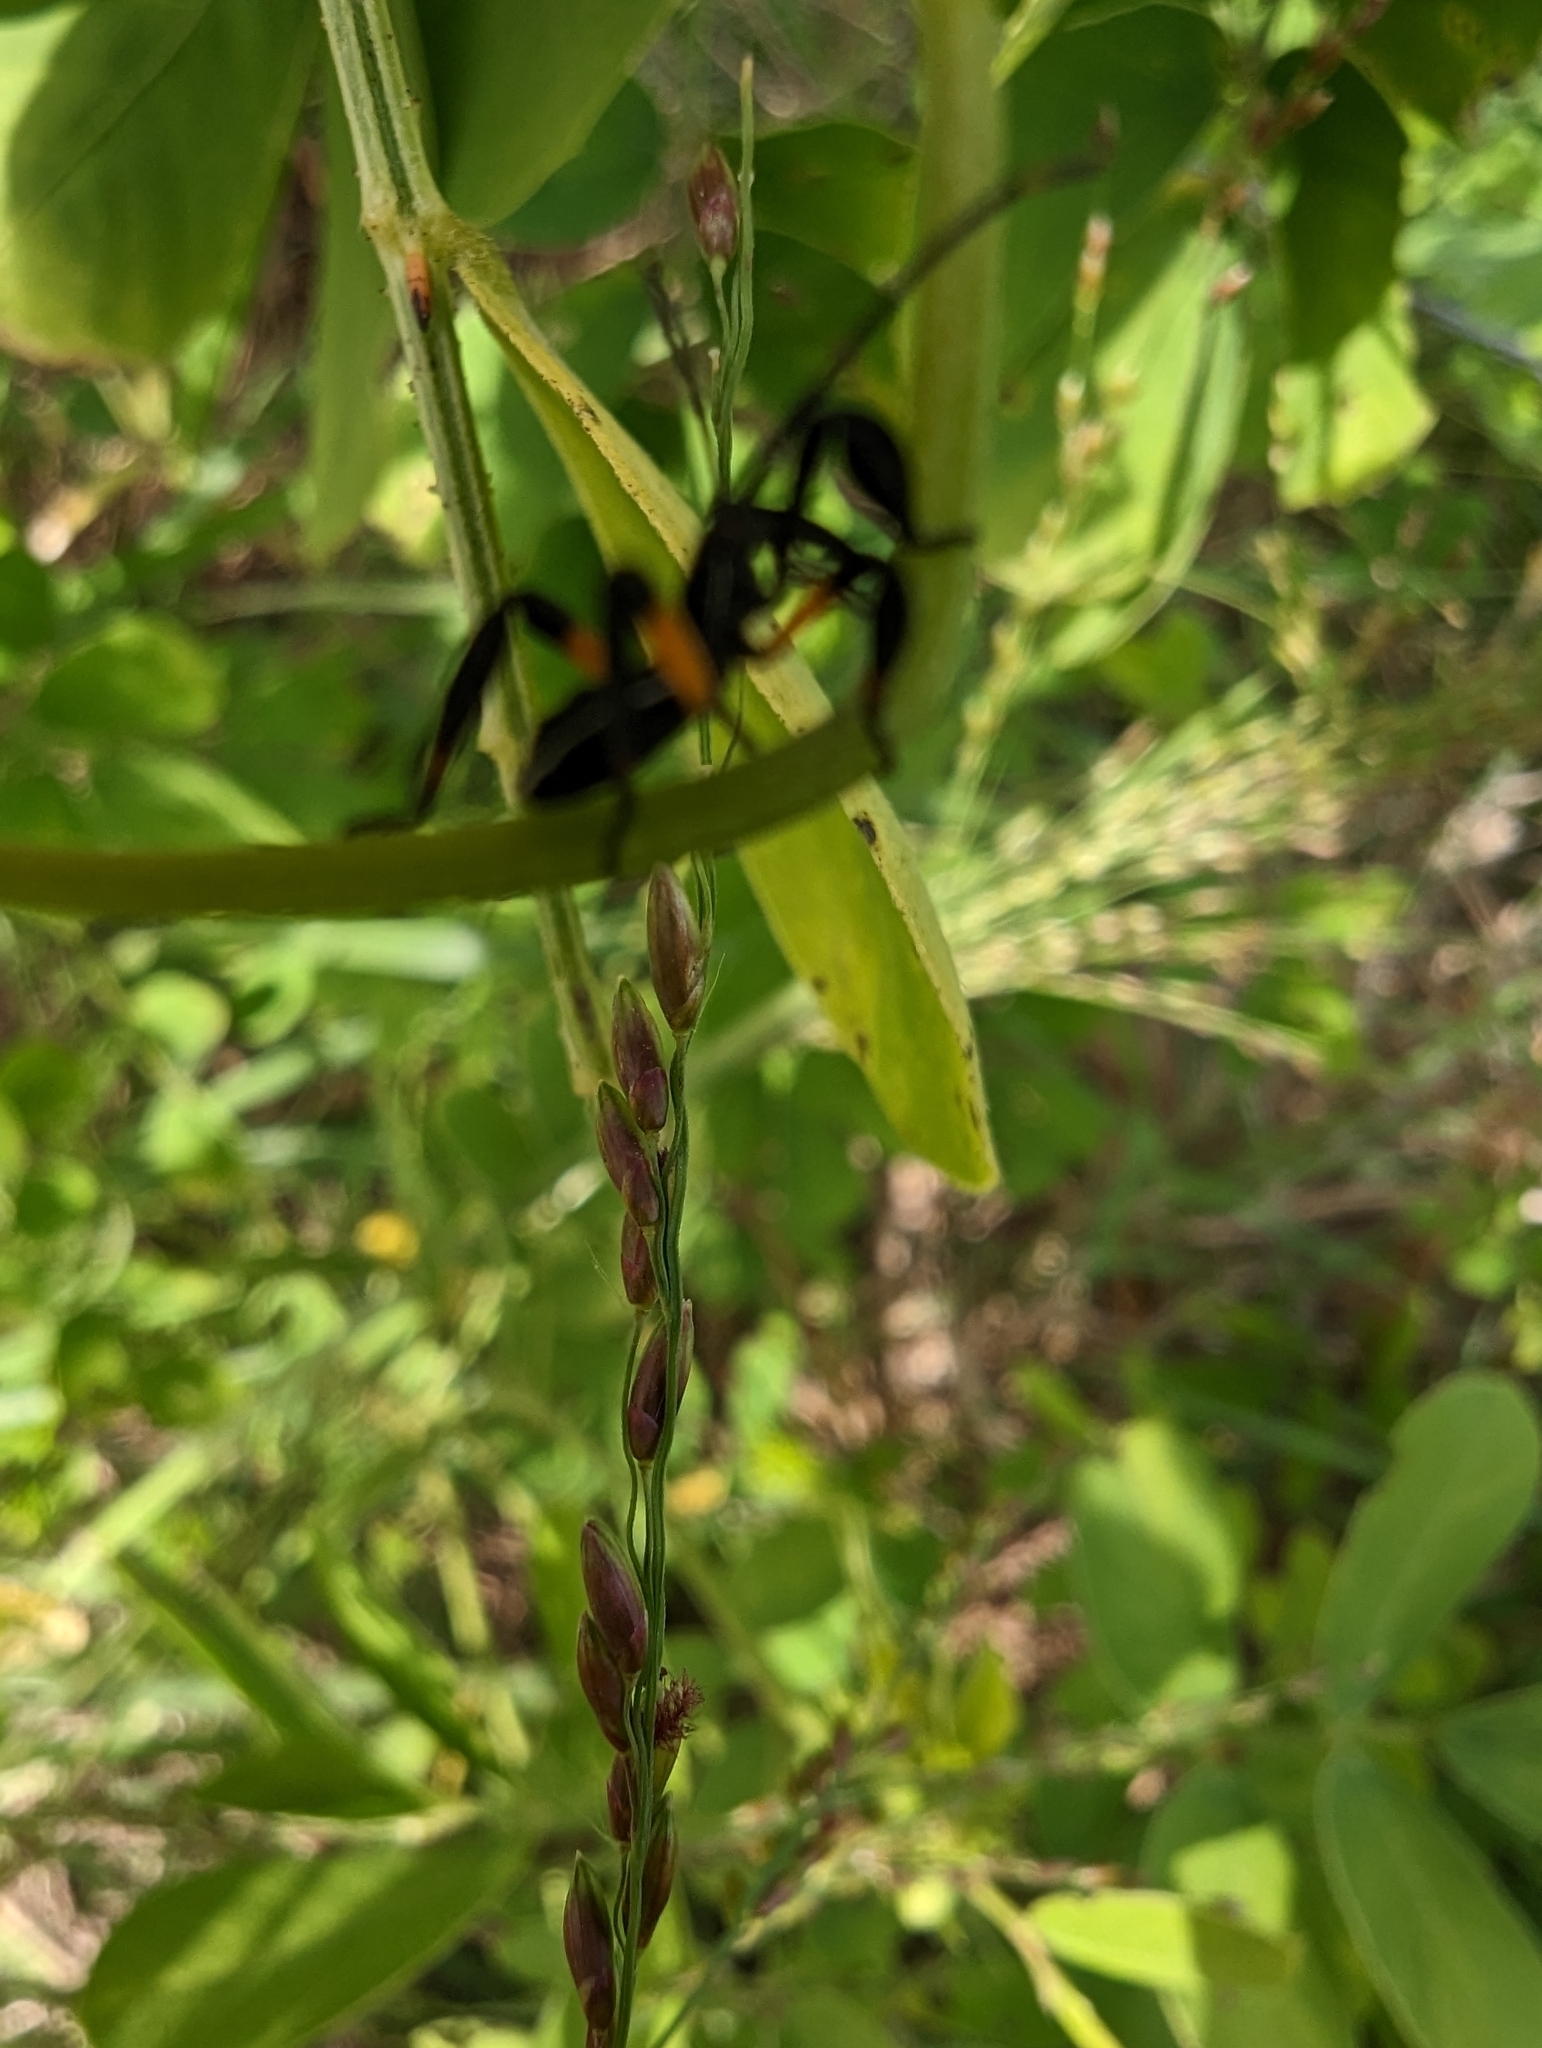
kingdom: Animalia
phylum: Arthropoda
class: Insecta
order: Hemiptera
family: Coreidae
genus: Mictis
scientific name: Mictis profana
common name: Crusader bug
